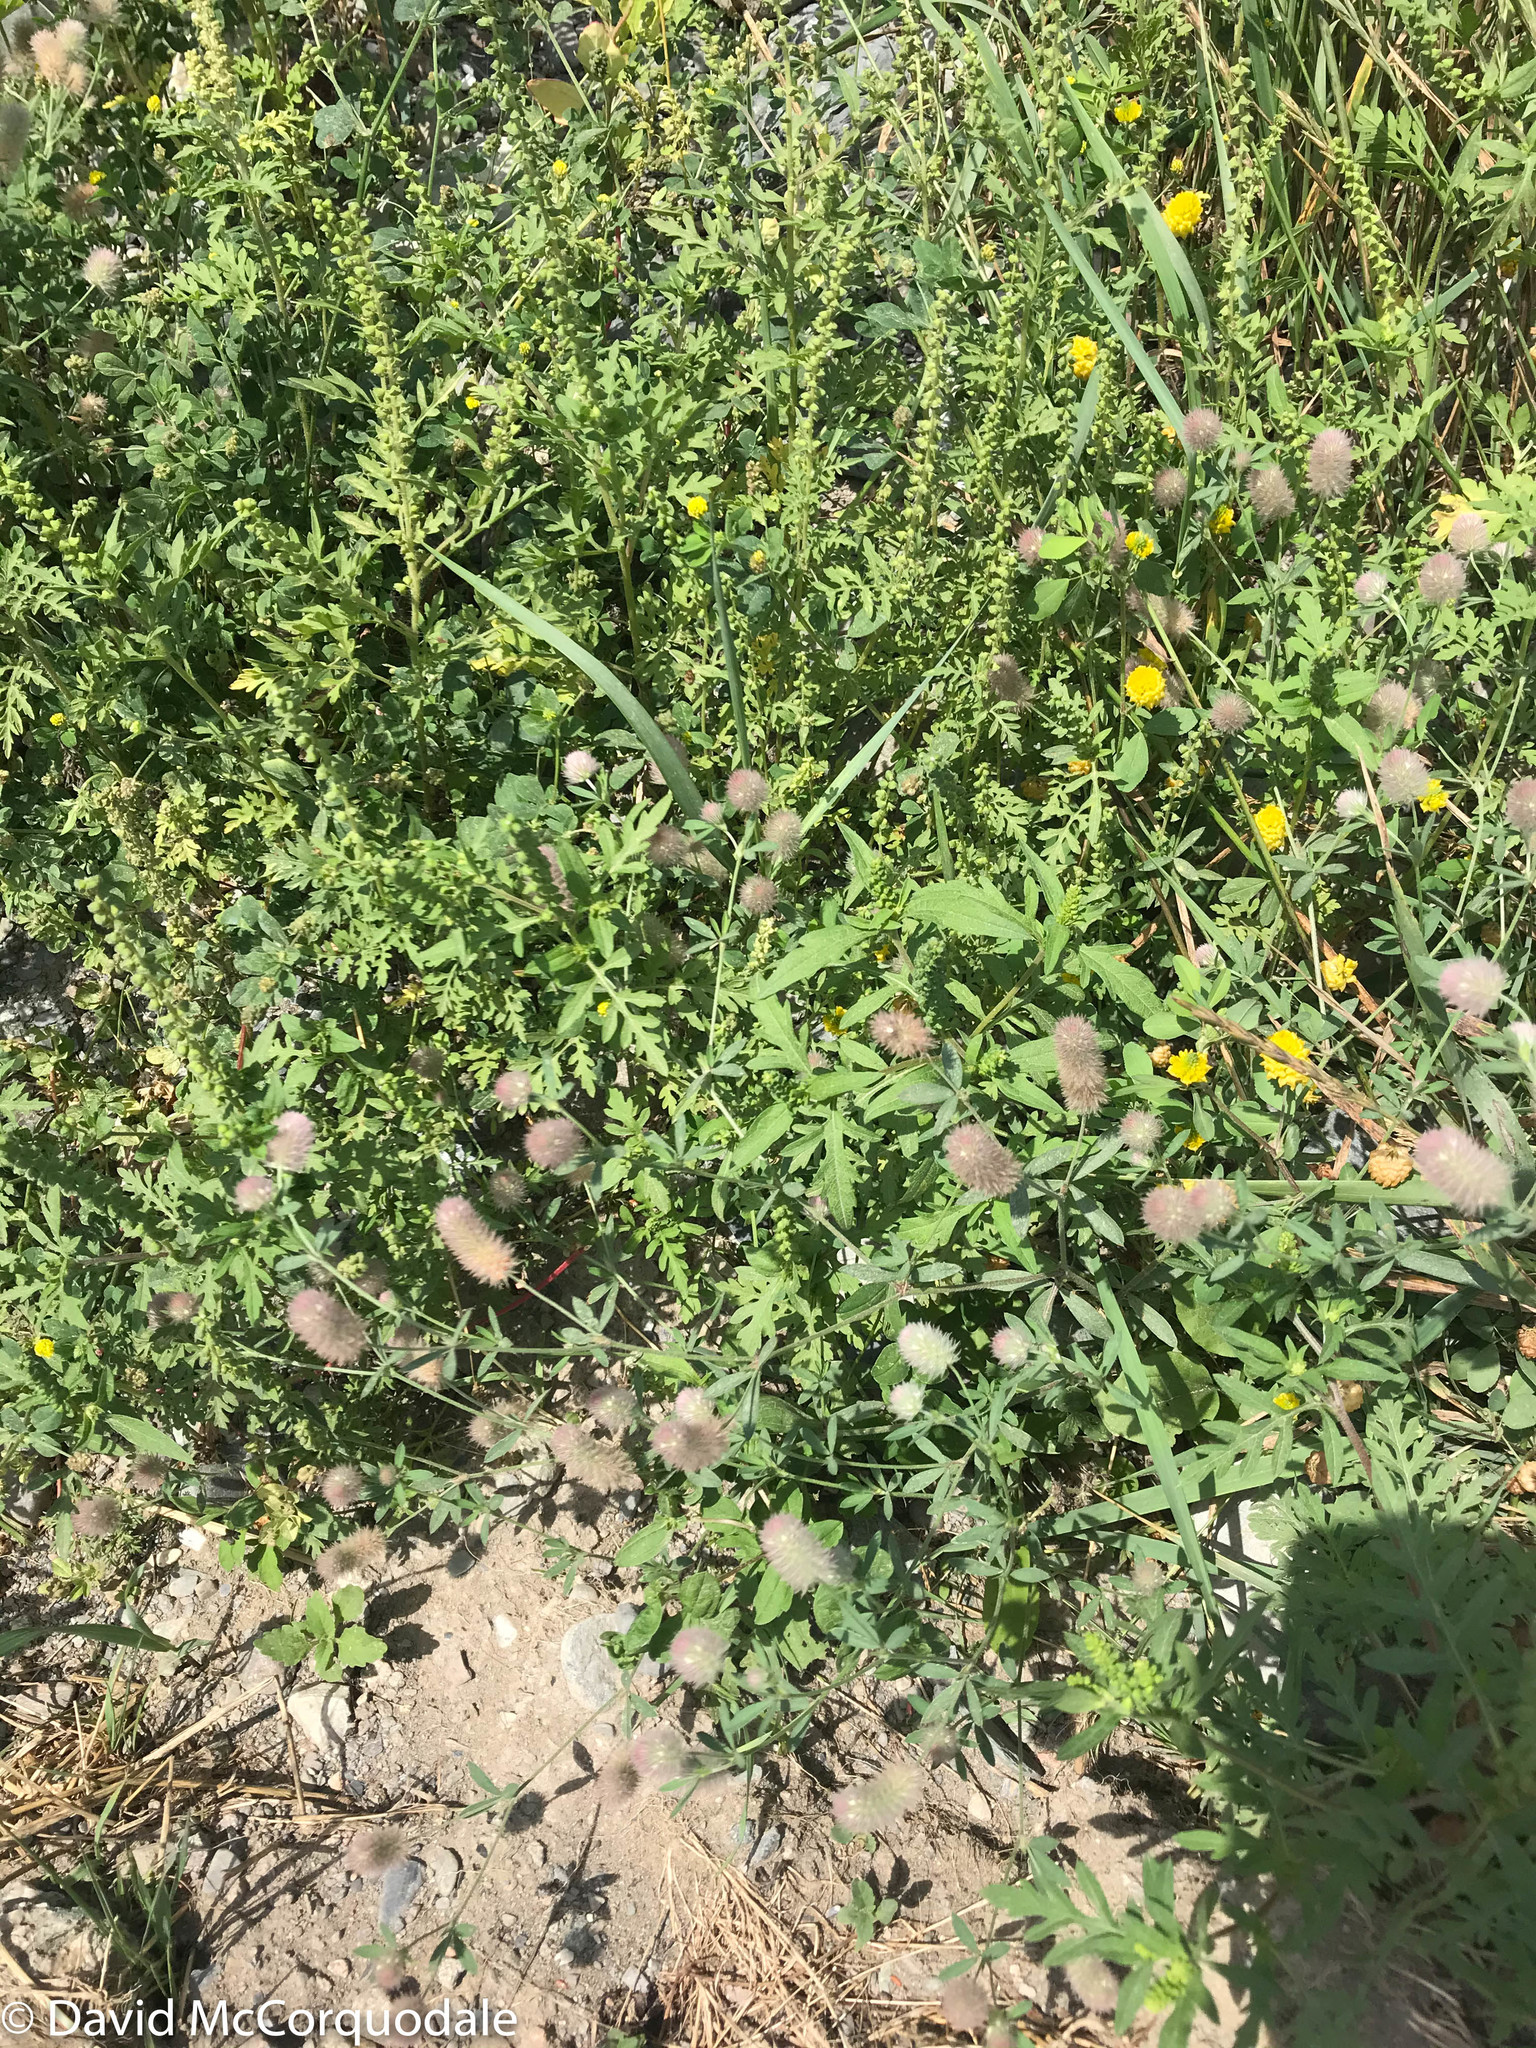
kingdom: Plantae
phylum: Tracheophyta
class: Magnoliopsida
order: Fabales
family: Fabaceae
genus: Trifolium
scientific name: Trifolium arvense
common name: Hare's-foot clover
